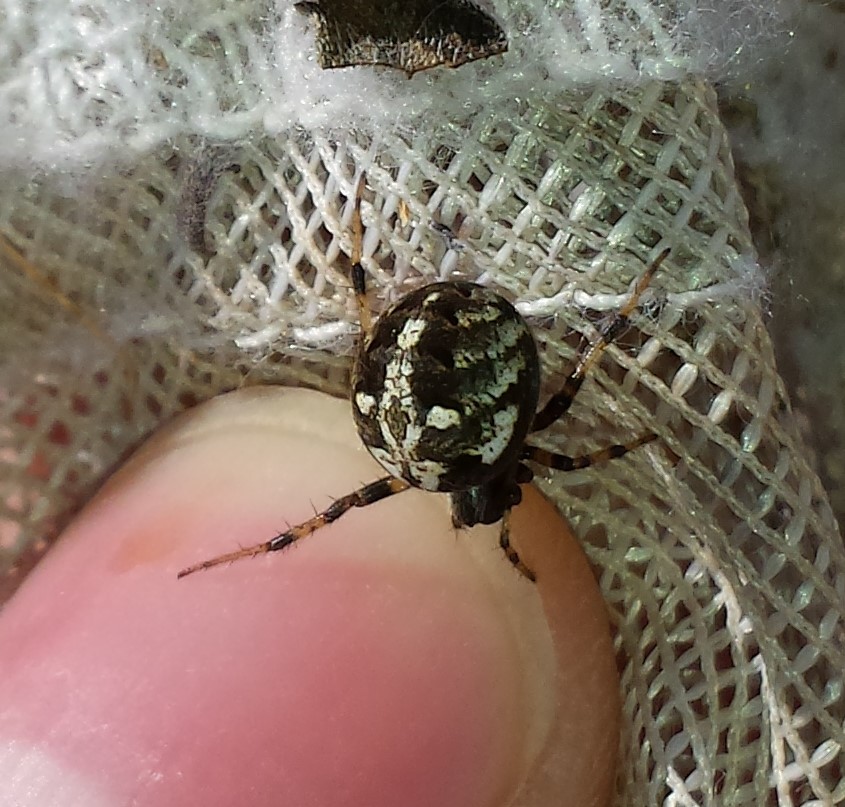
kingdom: Animalia
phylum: Arthropoda
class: Arachnida
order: Araneae
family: Araneidae
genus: Neoscona
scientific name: Neoscona arabesca
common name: Orb weavers
